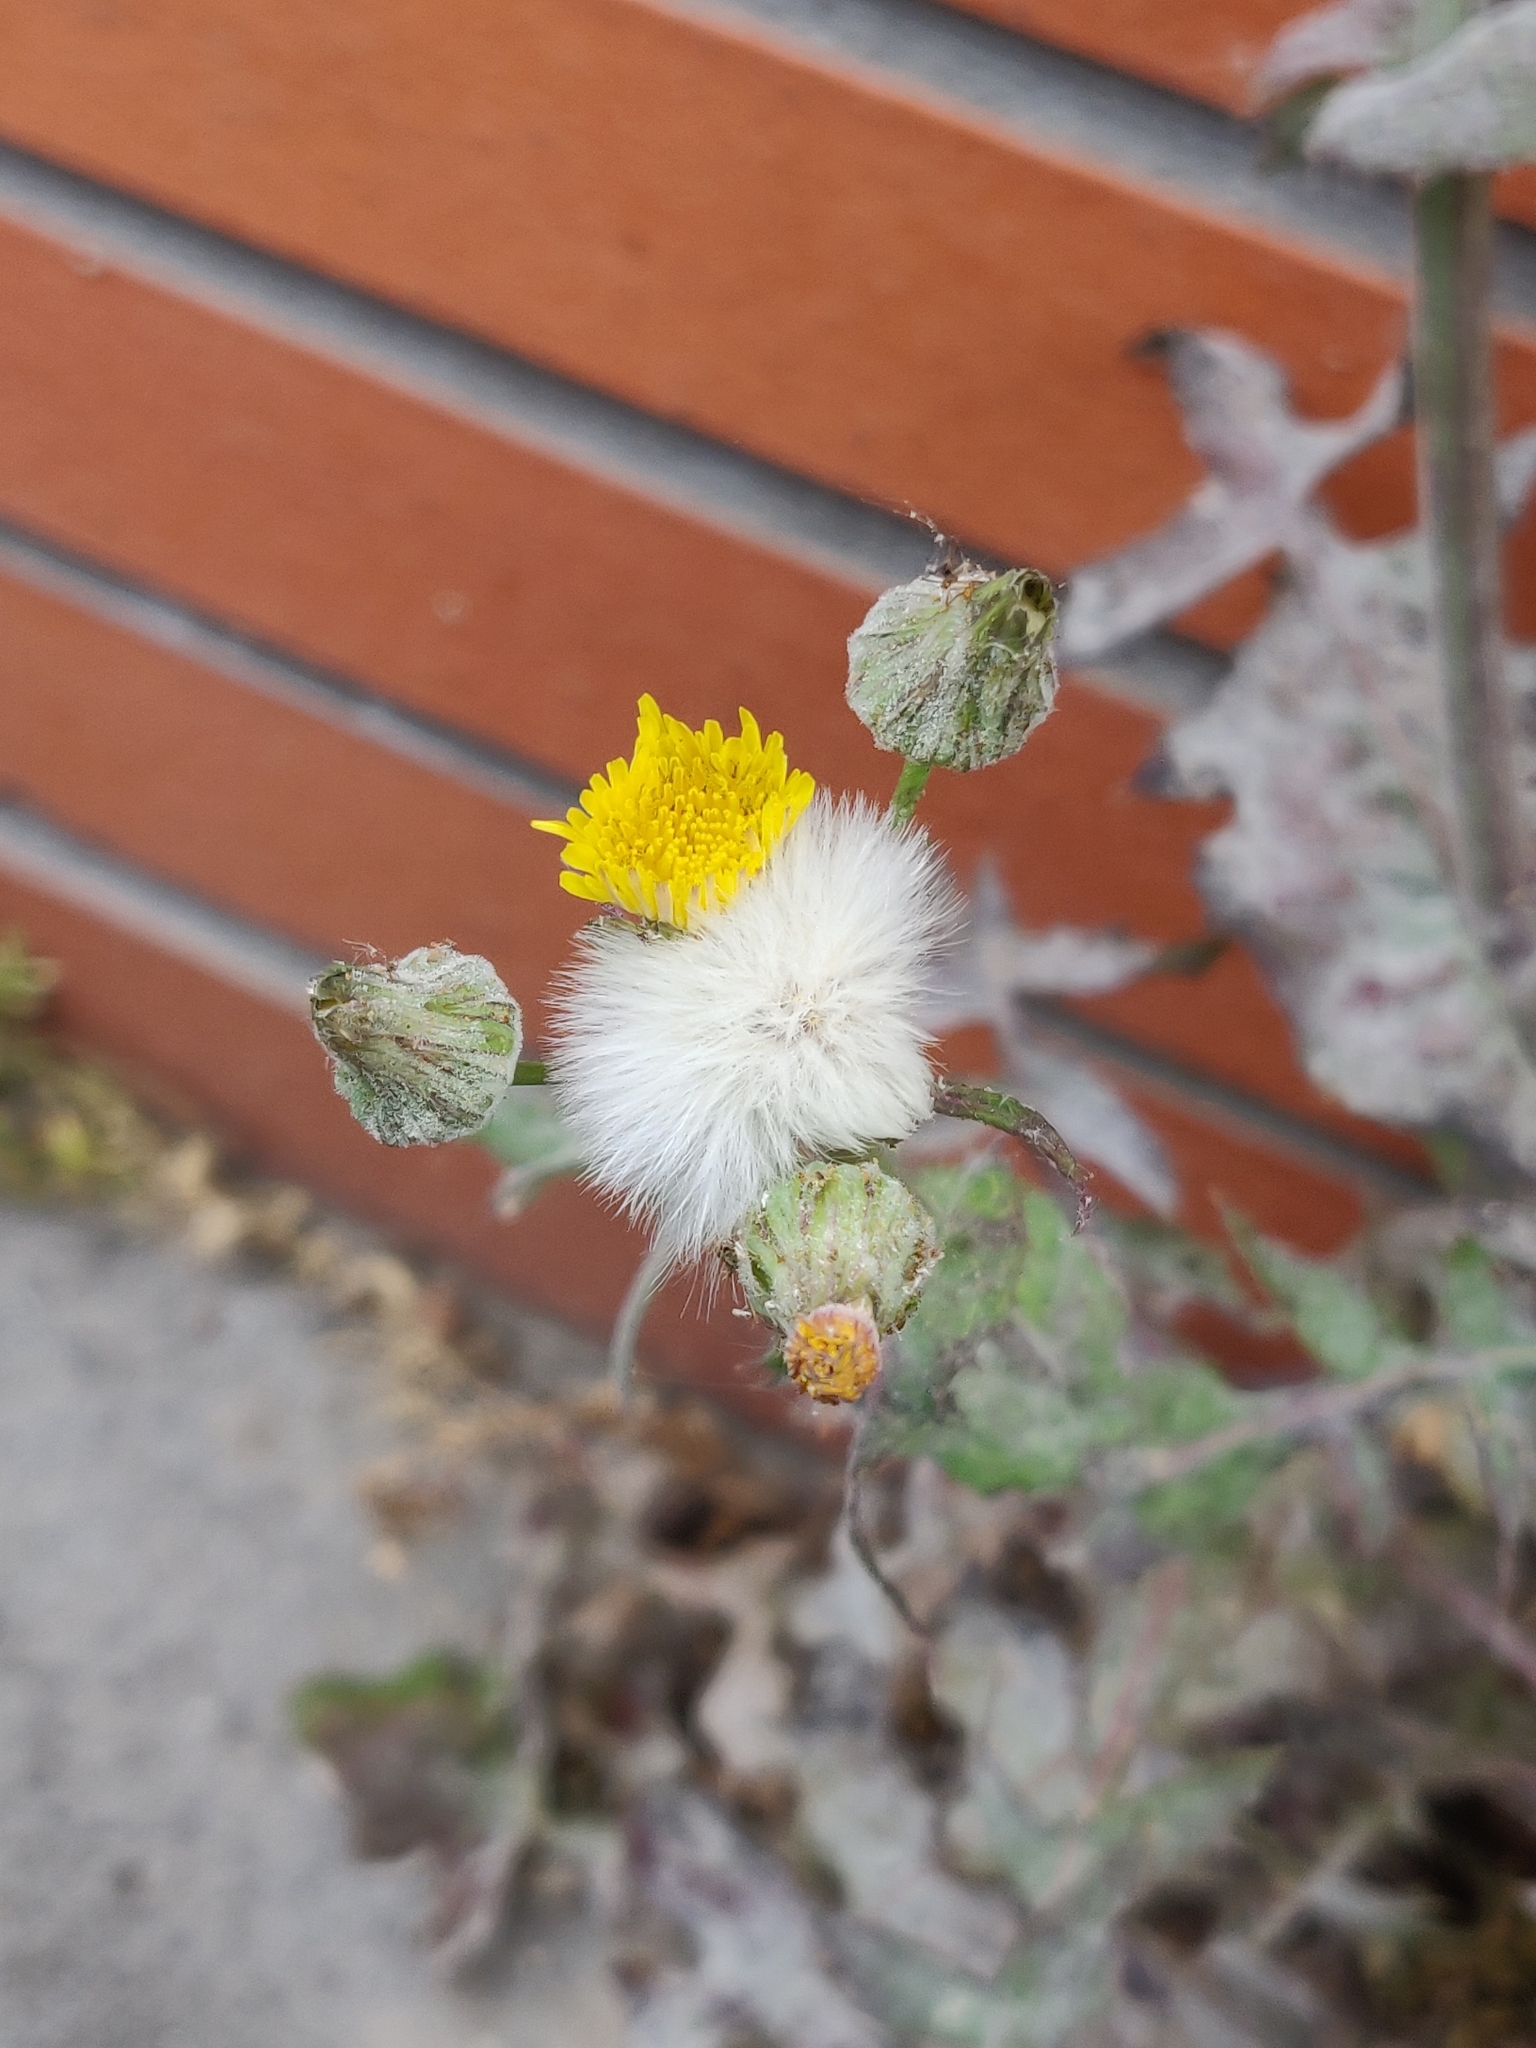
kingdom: Plantae
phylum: Tracheophyta
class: Magnoliopsida
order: Asterales
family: Asteraceae
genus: Sonchus
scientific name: Sonchus oleraceus
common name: Common sowthistle
